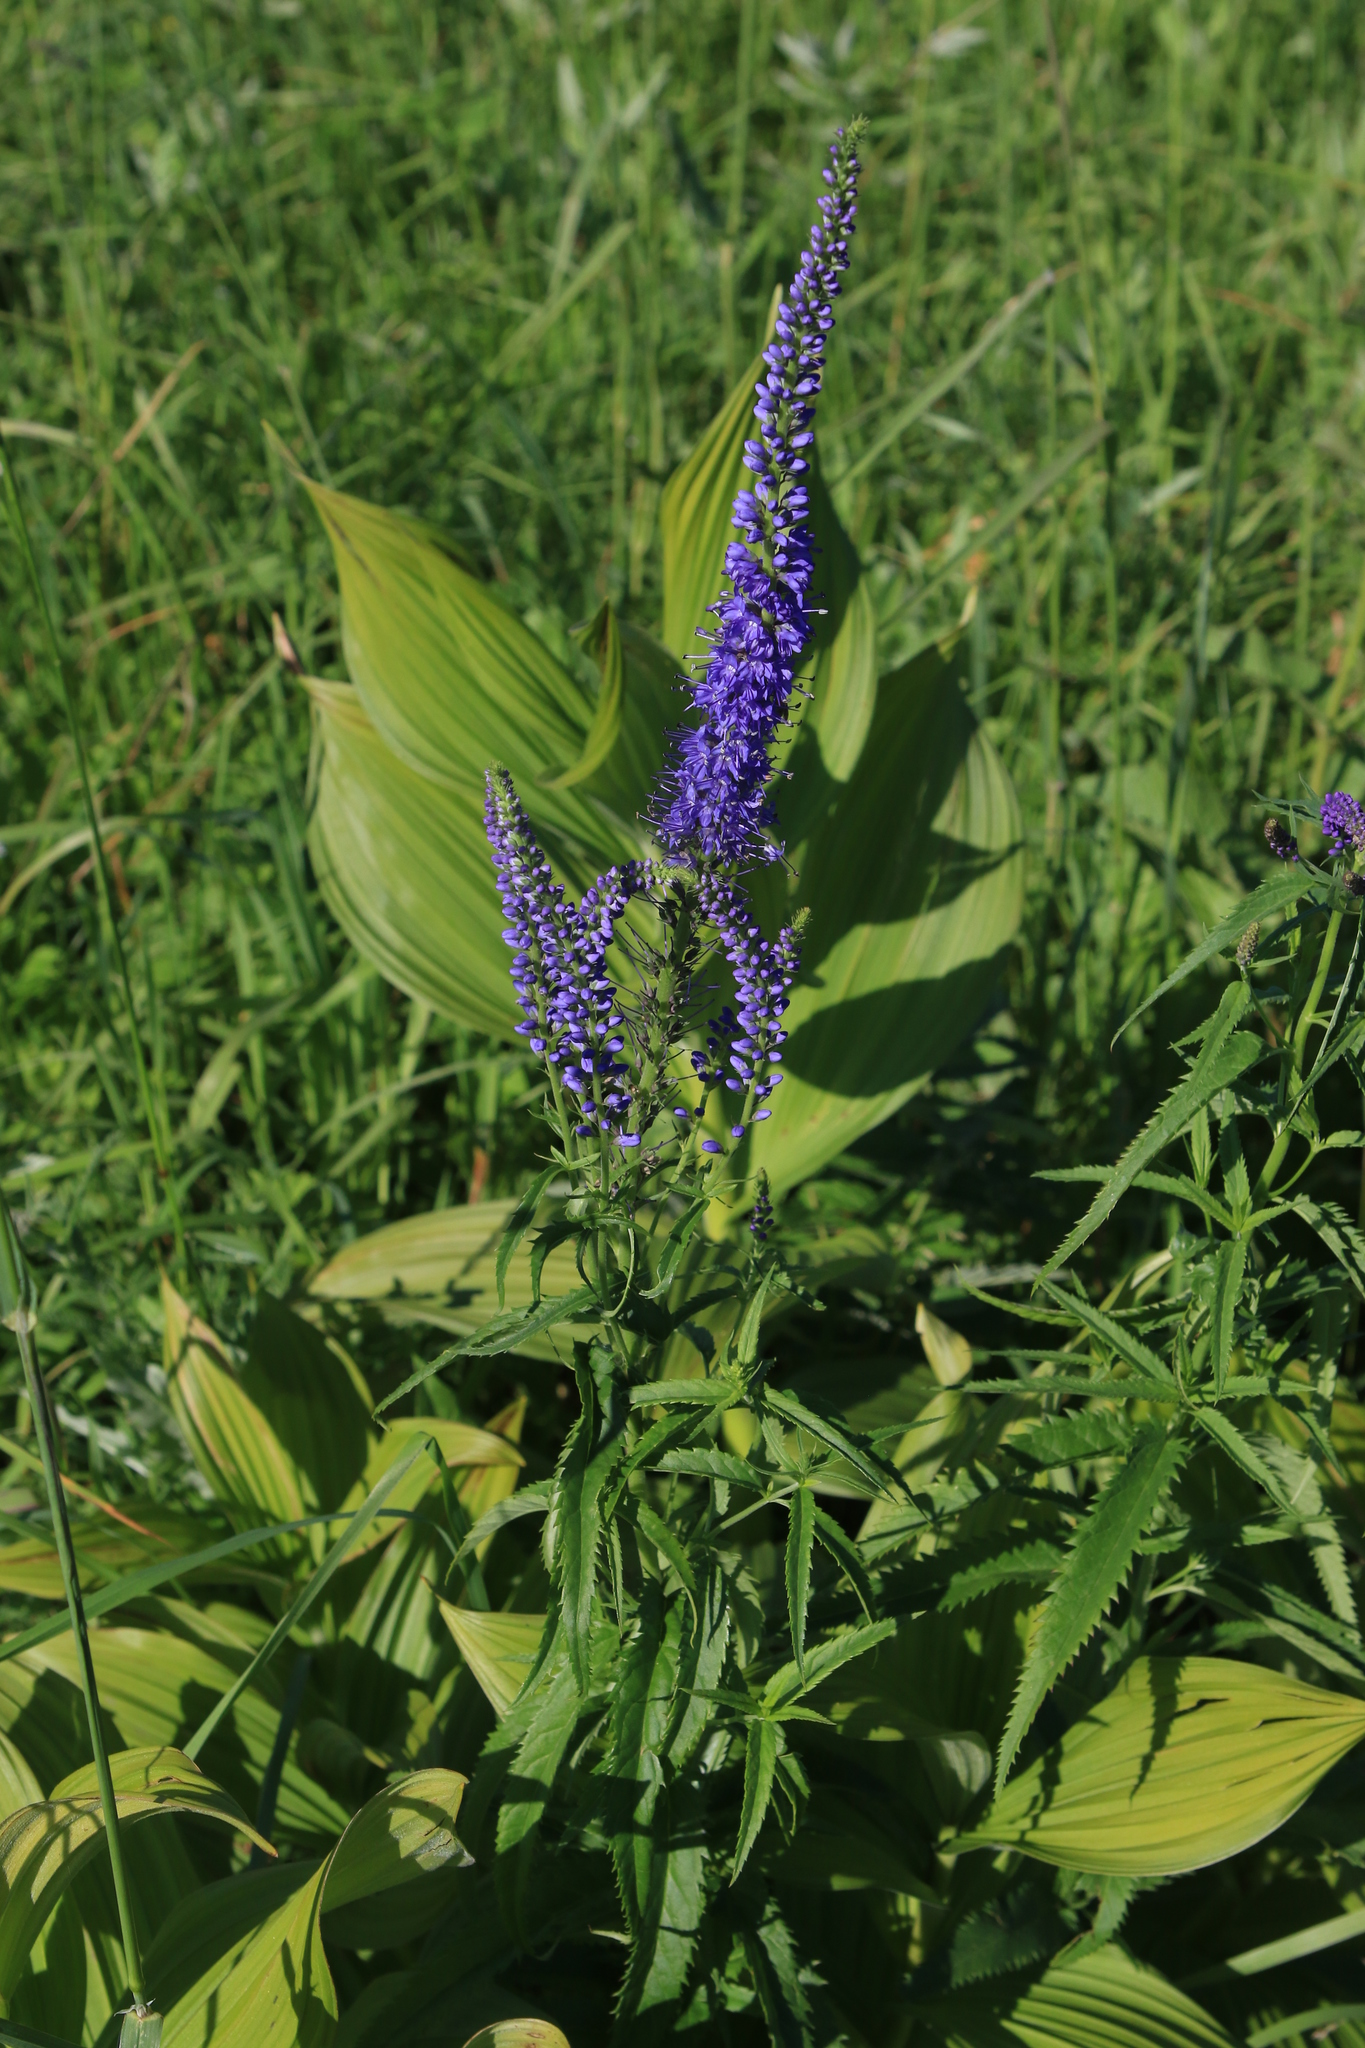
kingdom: Plantae
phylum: Tracheophyta
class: Magnoliopsida
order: Lamiales
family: Plantaginaceae
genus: Veronica
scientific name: Veronica longifolia
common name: Garden speedwell
